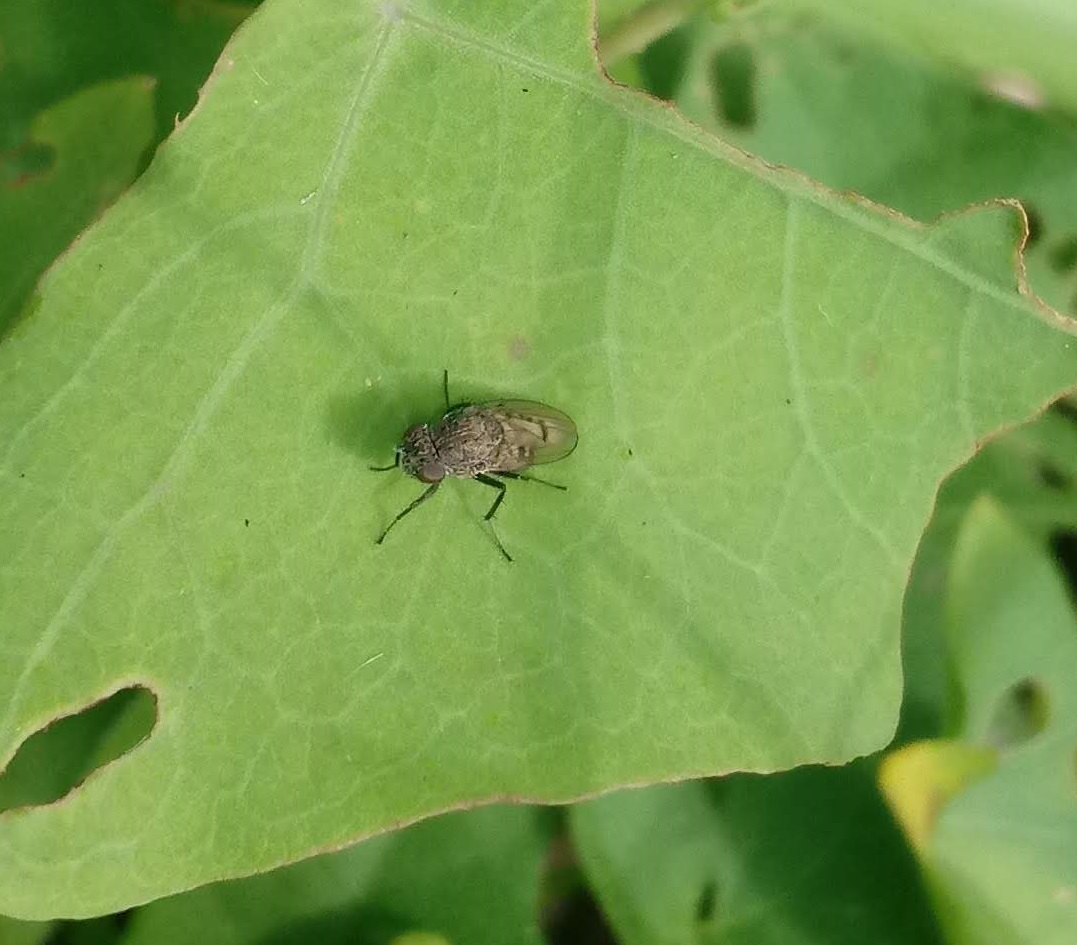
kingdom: Animalia
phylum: Arthropoda
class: Insecta
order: Diptera
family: Ephydridae
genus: Paralimna
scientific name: Paralimna punctipennis
